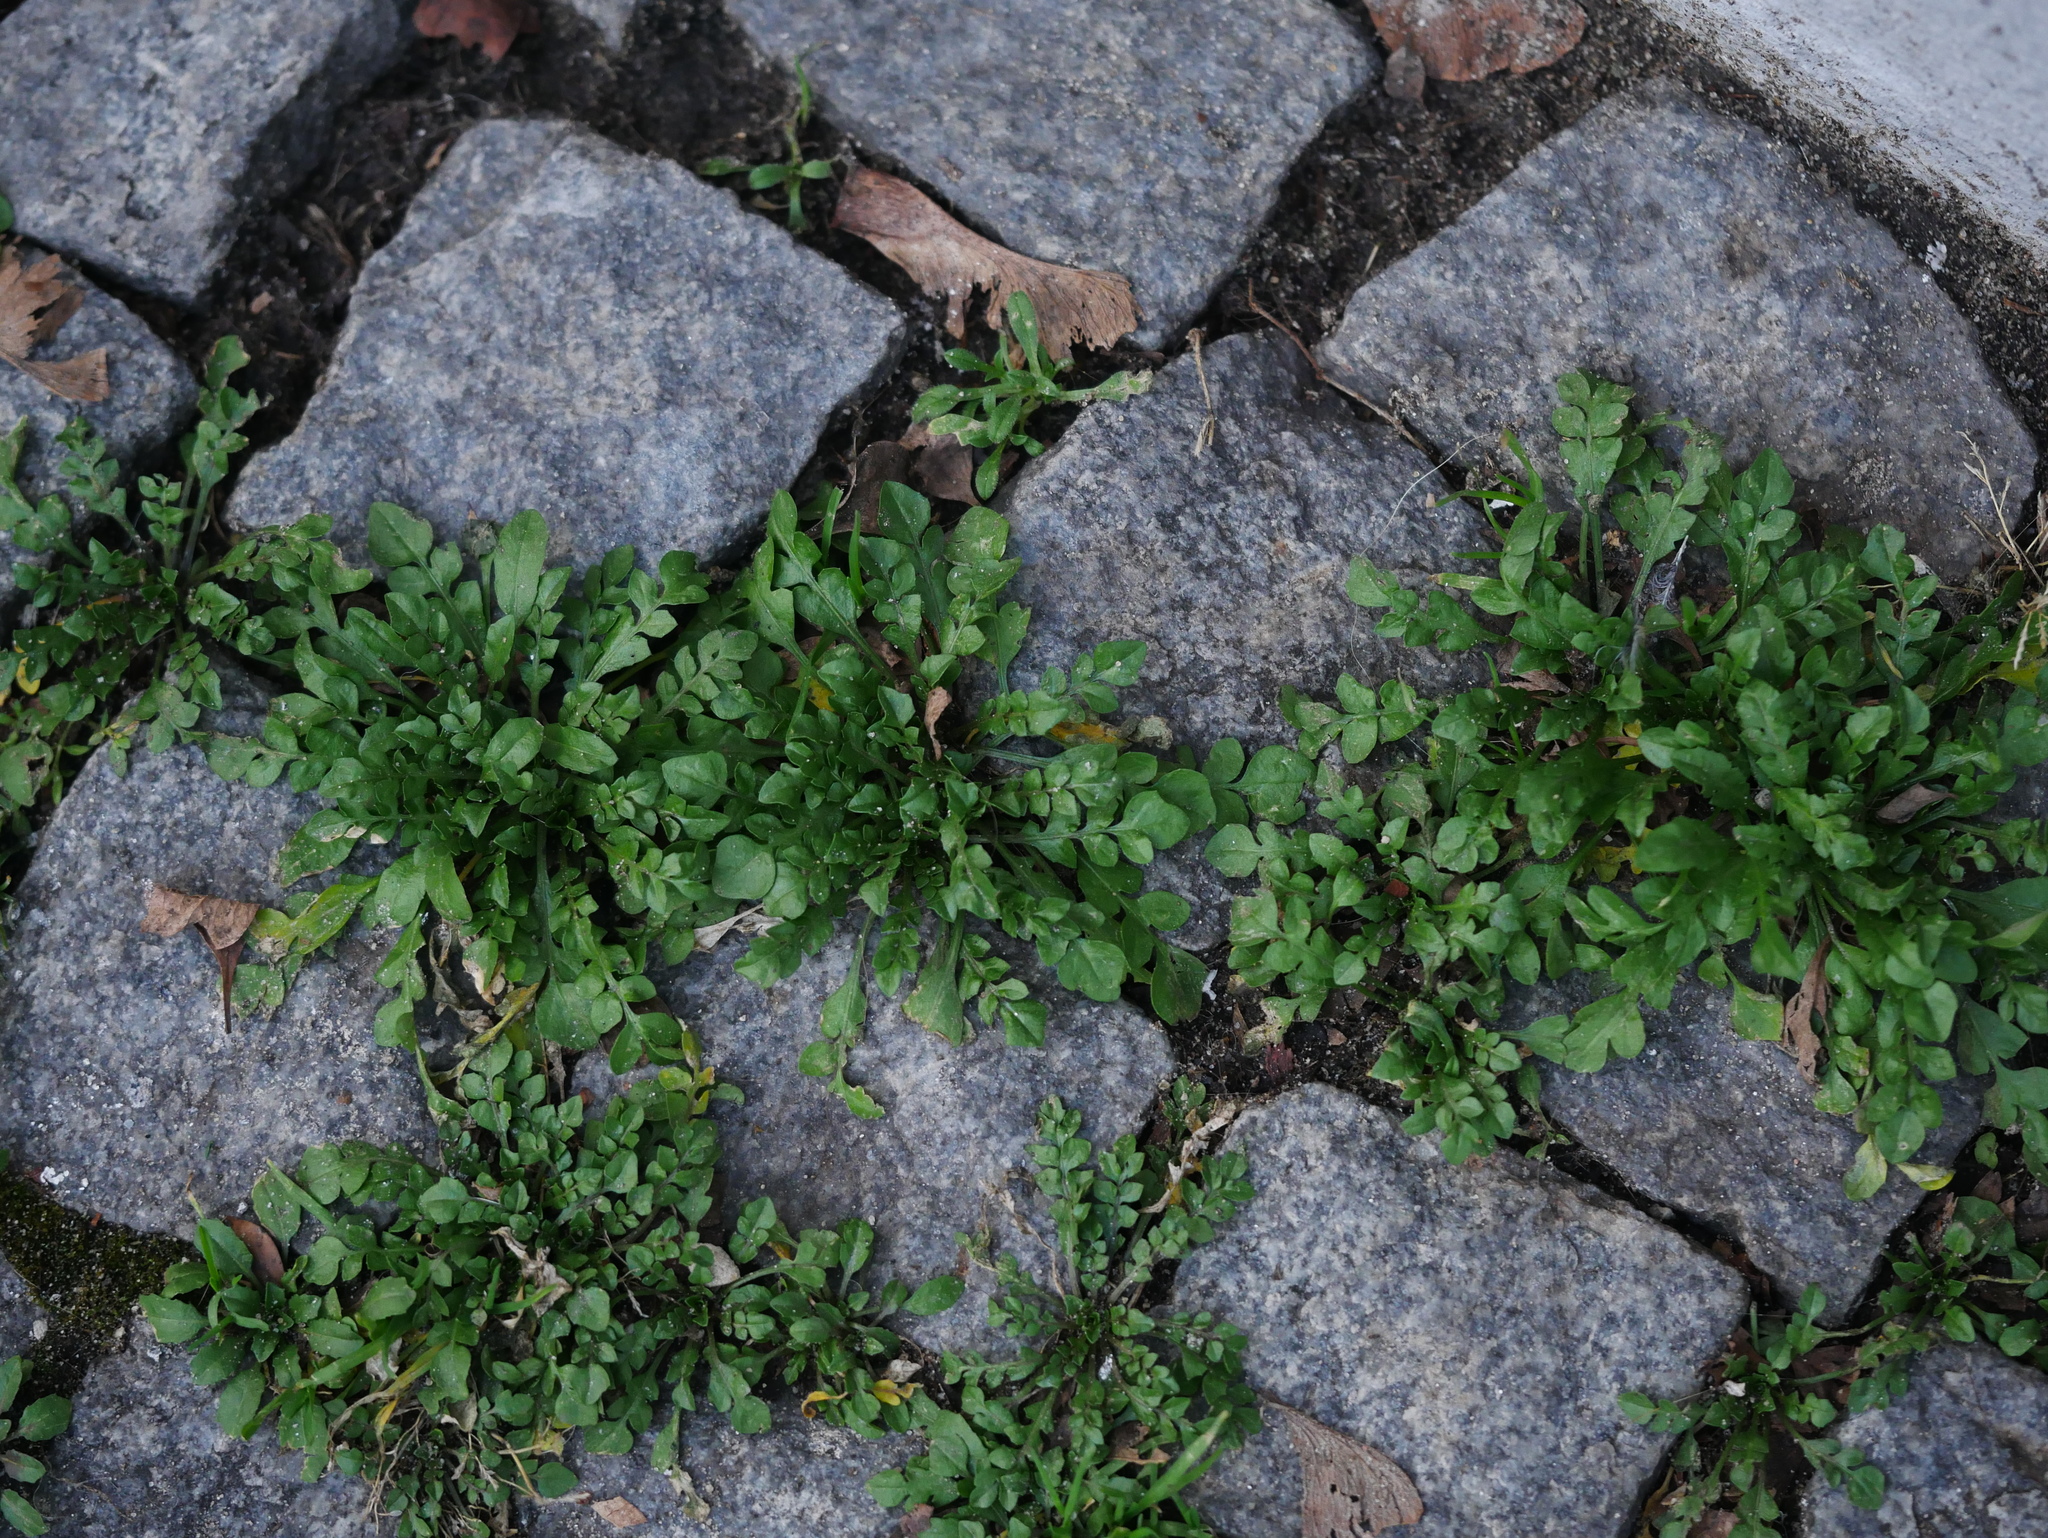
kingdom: Plantae
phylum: Tracheophyta
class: Magnoliopsida
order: Brassicales
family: Brassicaceae
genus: Capsella
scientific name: Capsella bursa-pastoris
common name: Shepherd's purse
